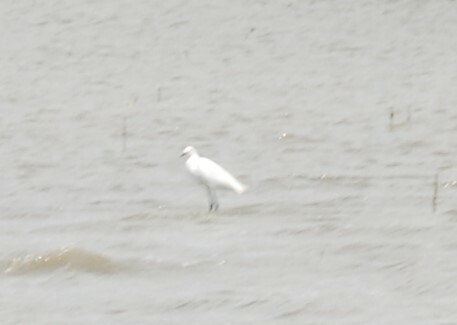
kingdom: Animalia
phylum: Chordata
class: Aves
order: Pelecaniformes
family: Ardeidae
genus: Egretta
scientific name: Egretta garzetta
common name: Little egret
